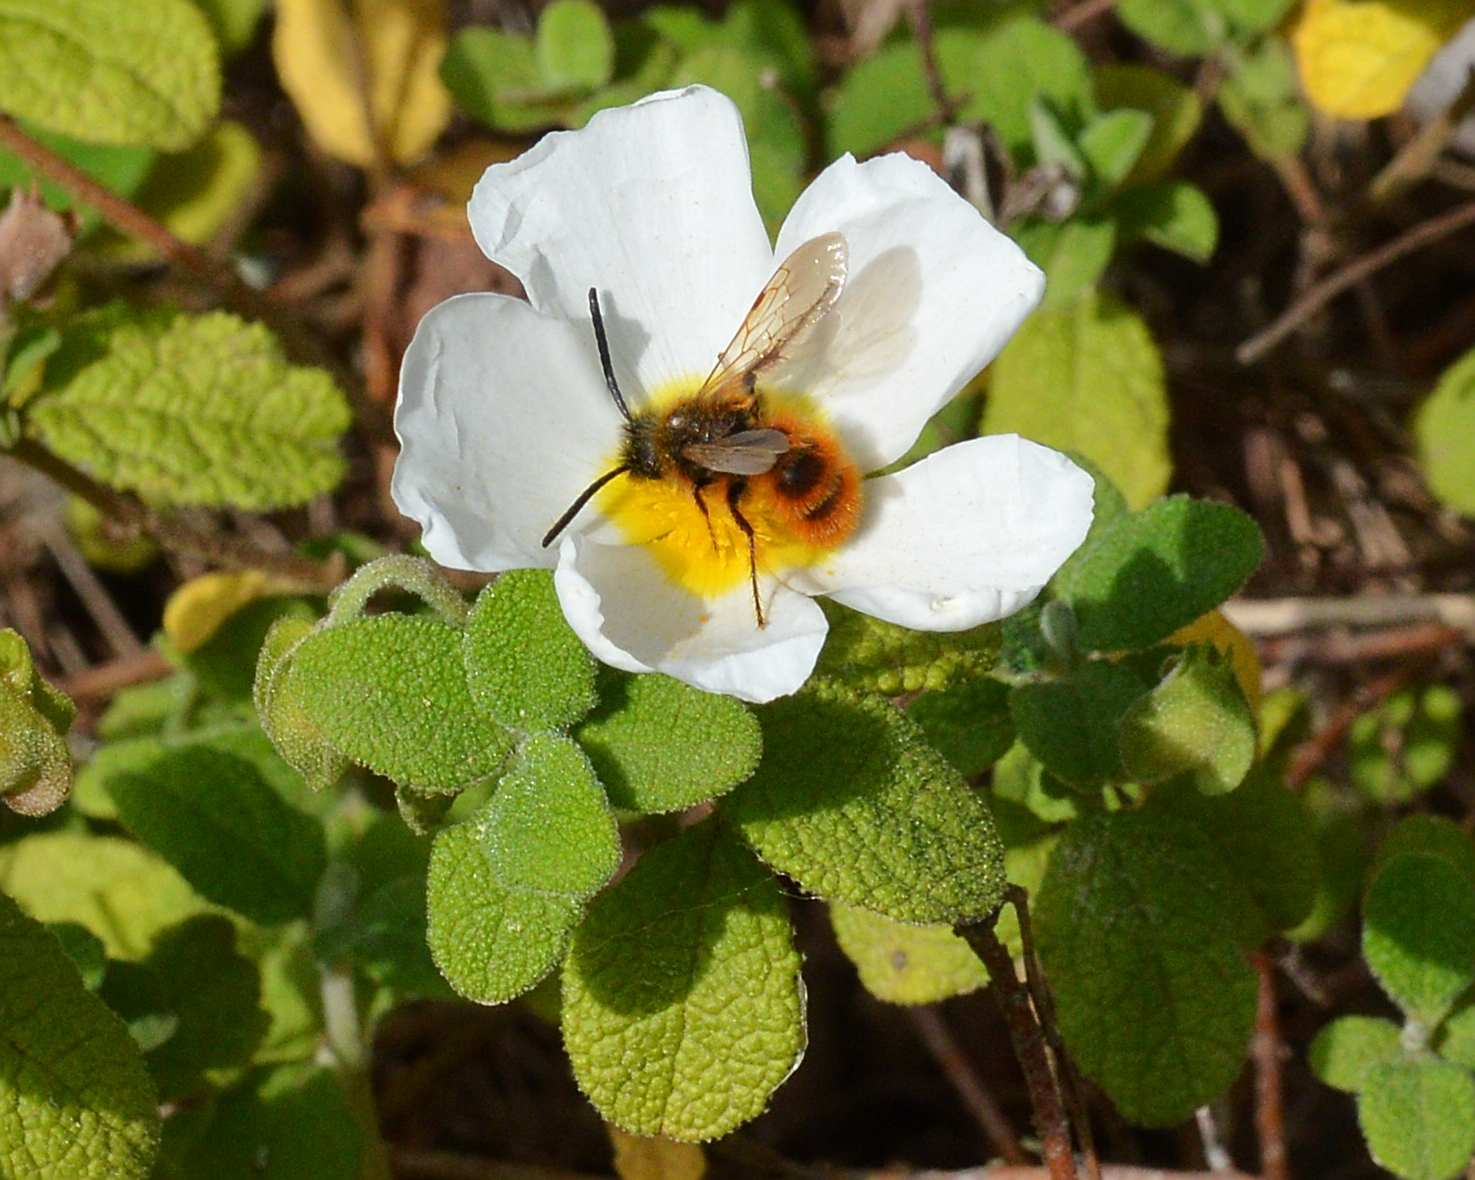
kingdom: Plantae
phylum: Tracheophyta
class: Magnoliopsida
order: Malvales
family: Cistaceae
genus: Cistus
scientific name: Cistus salviifolius
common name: Salvia cistus
